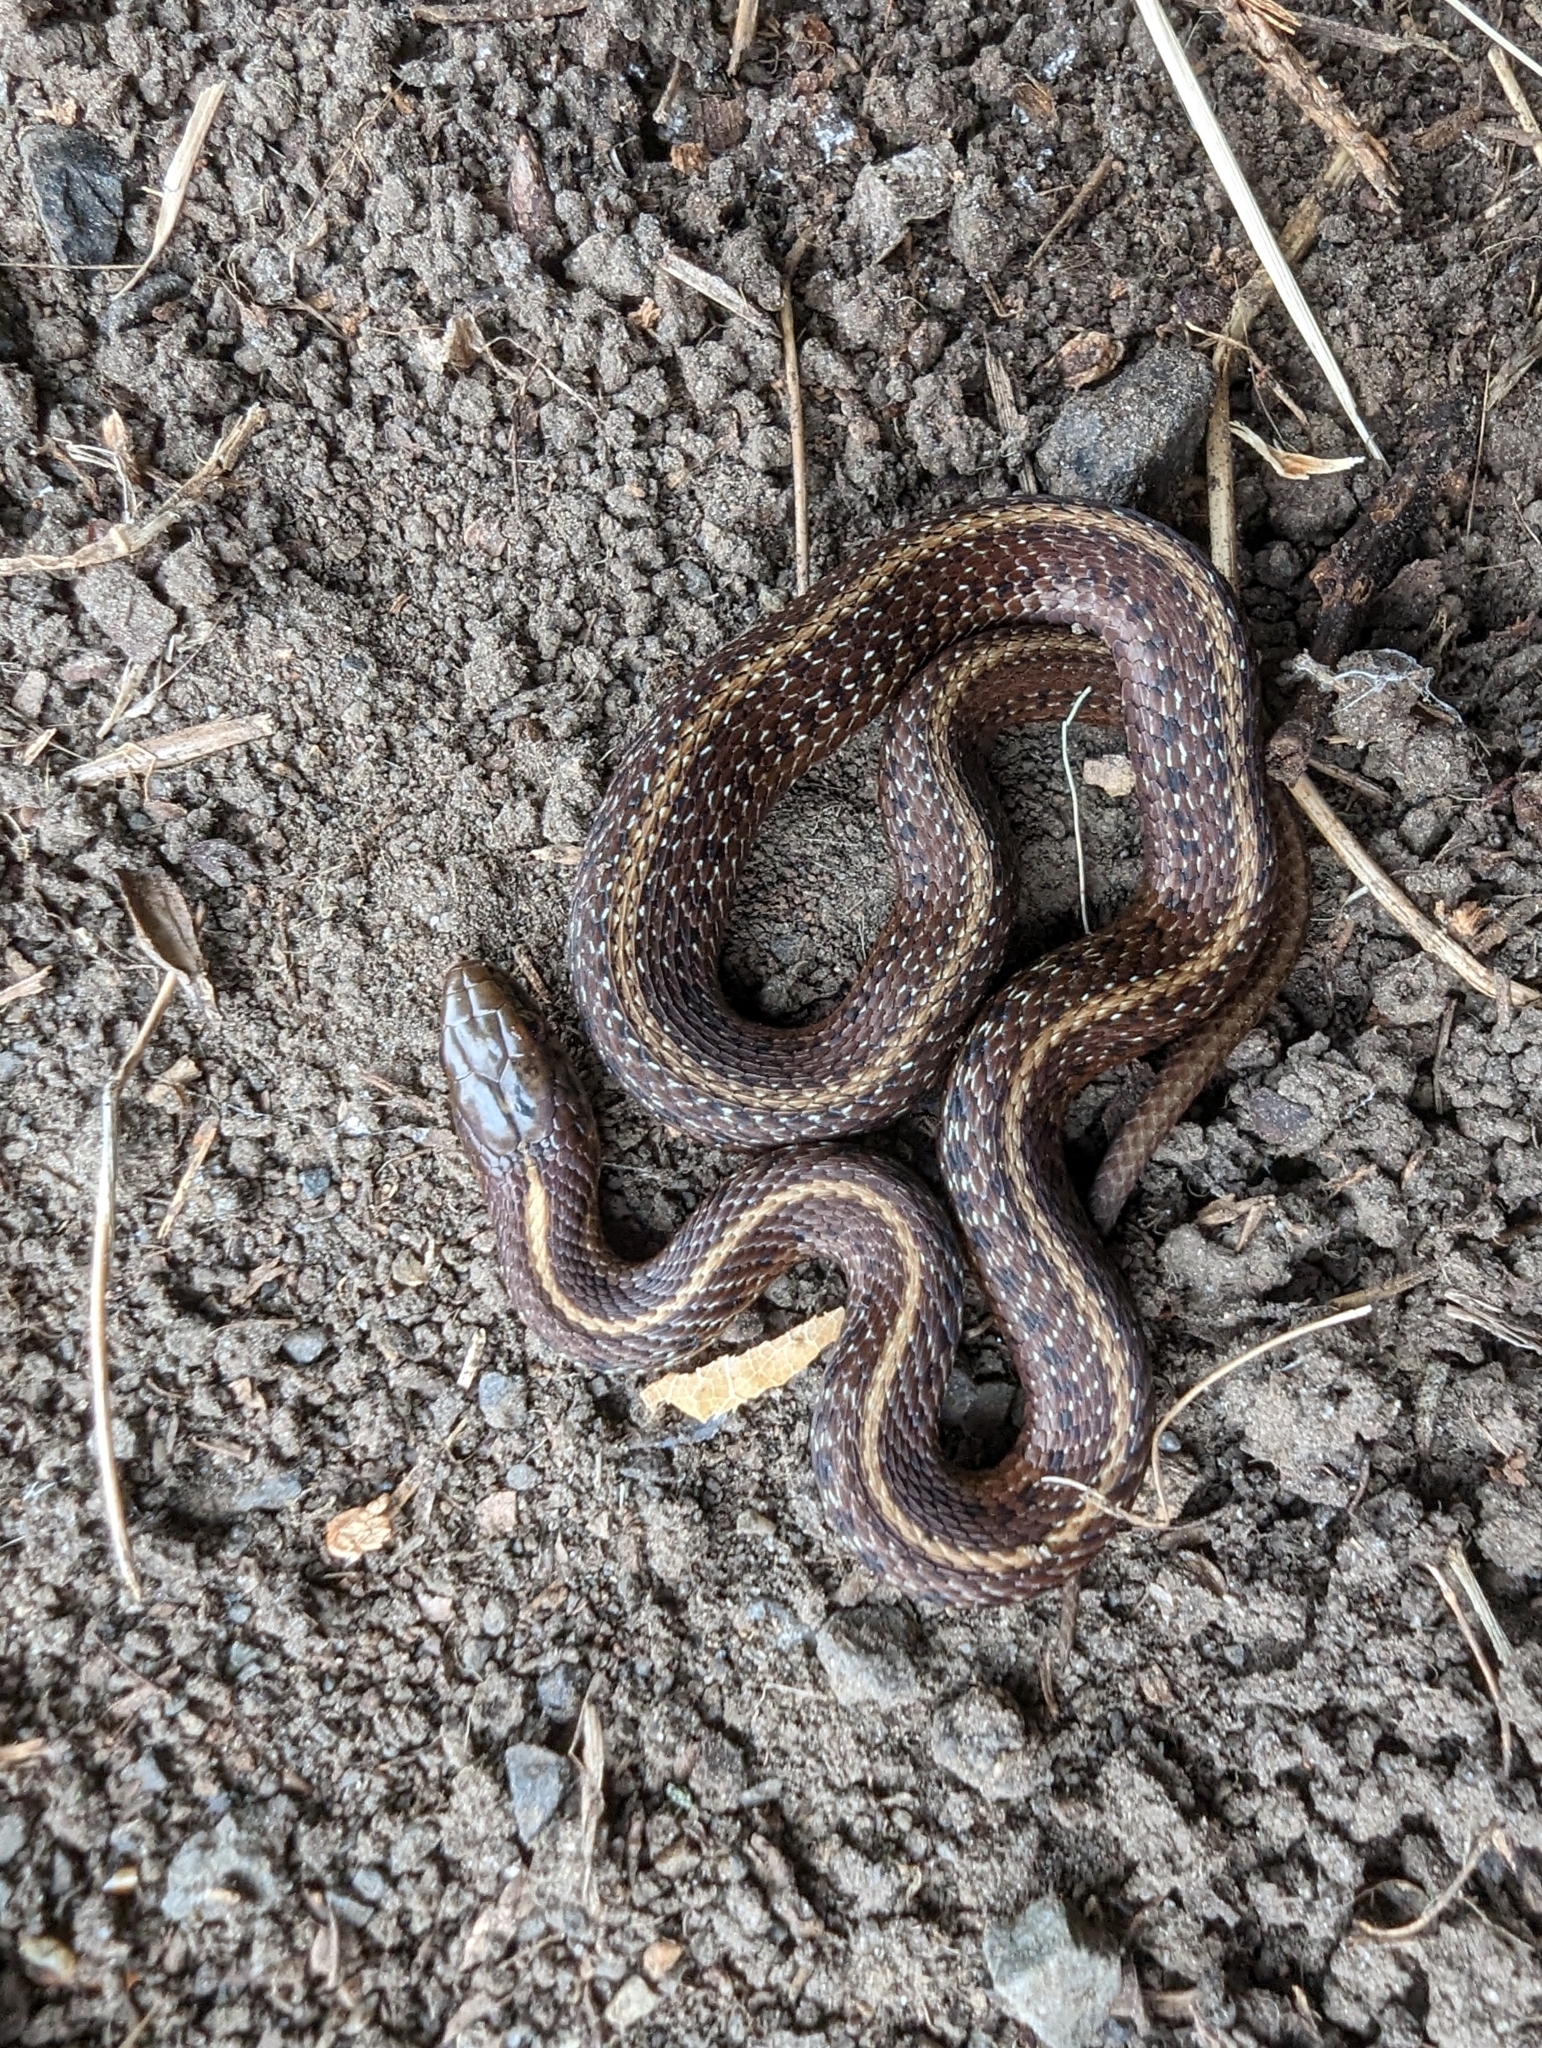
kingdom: Animalia
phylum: Chordata
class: Squamata
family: Colubridae
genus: Thamnophis
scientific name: Thamnophis ordinoides
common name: Northwestern garter snake
